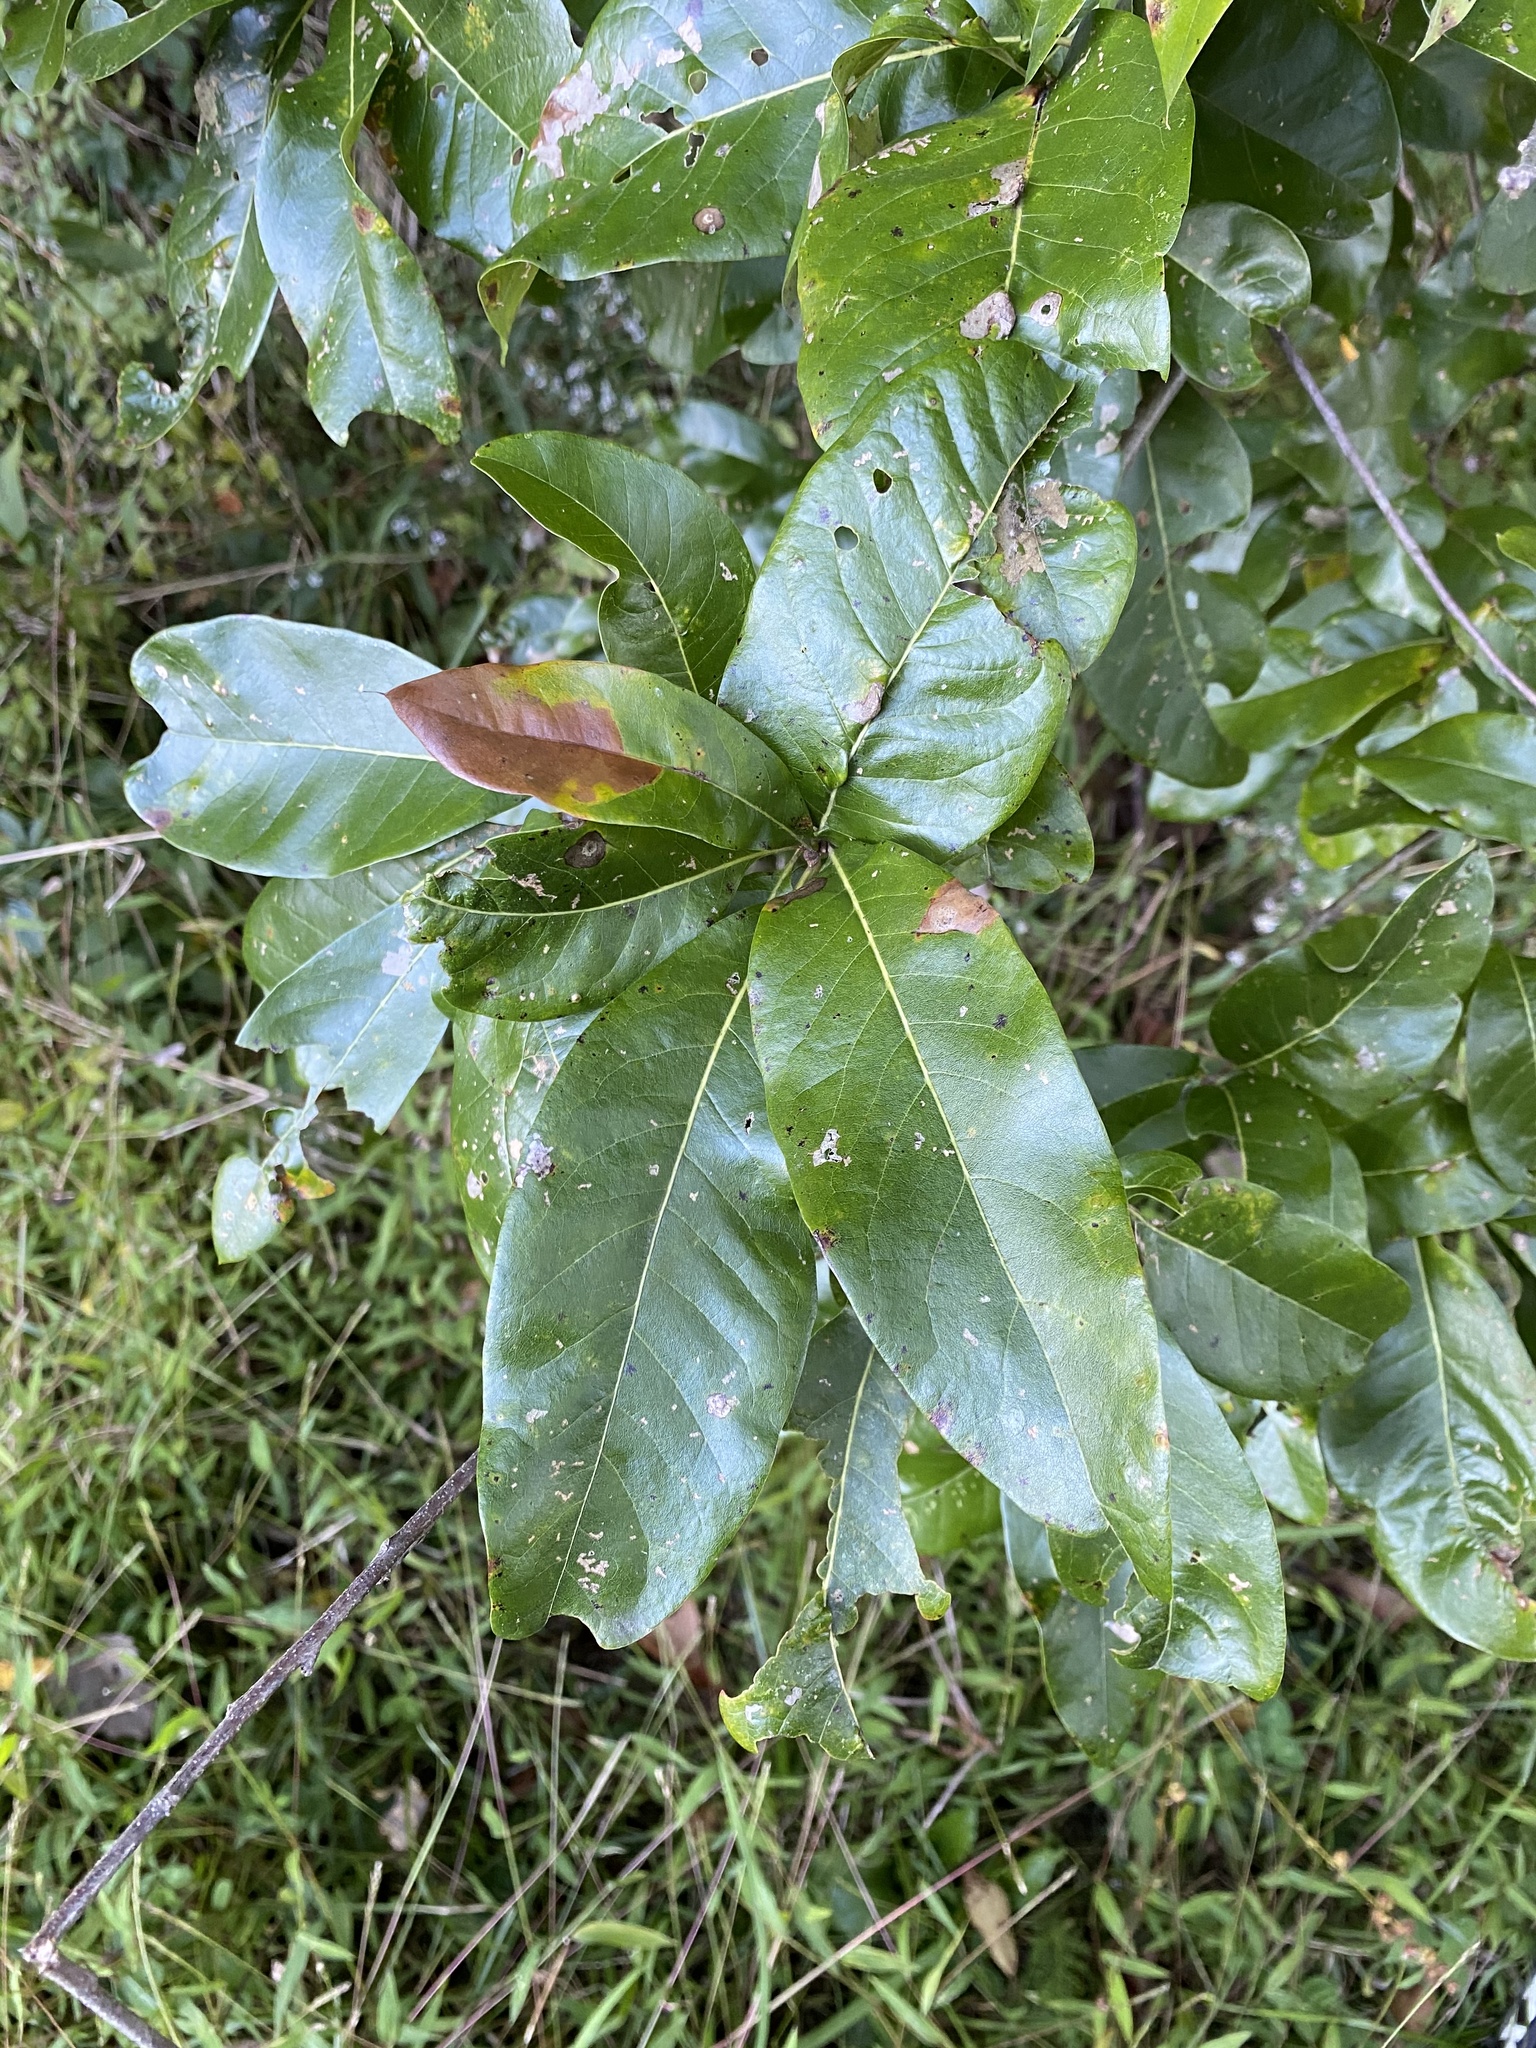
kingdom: Plantae
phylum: Tracheophyta
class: Magnoliopsida
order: Fagales
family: Fagaceae
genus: Quercus
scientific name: Quercus imbricaria
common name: Shingle oak
